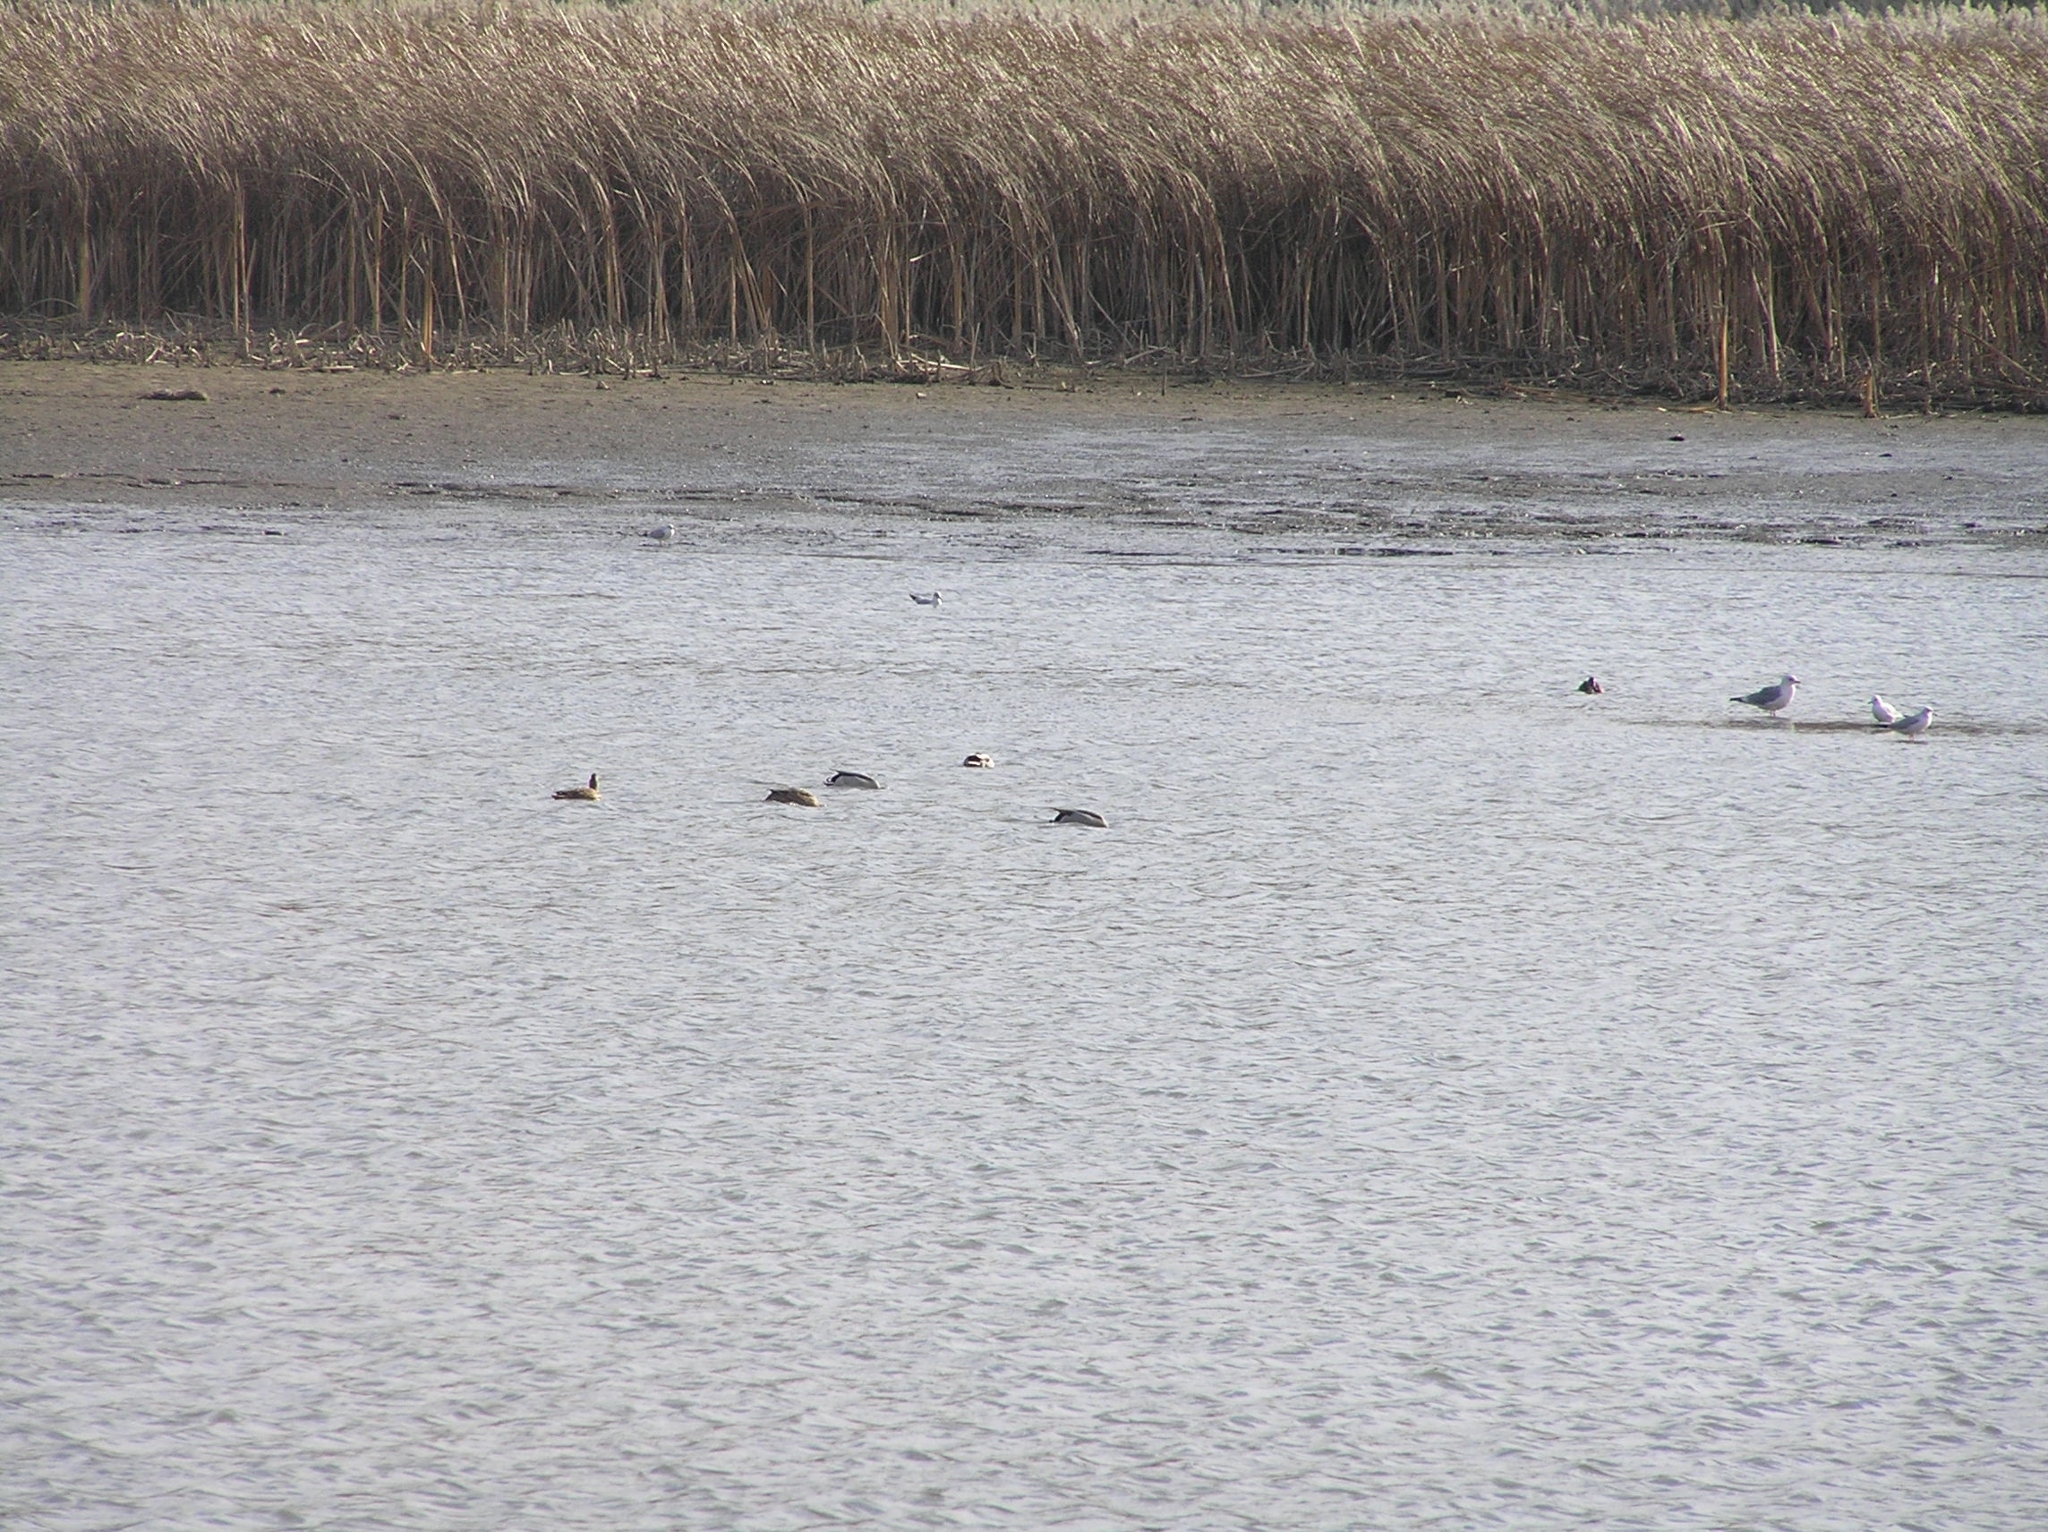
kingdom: Animalia
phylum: Chordata
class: Aves
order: Charadriiformes
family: Laridae
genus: Larus
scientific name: Larus canus
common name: Mew gull
